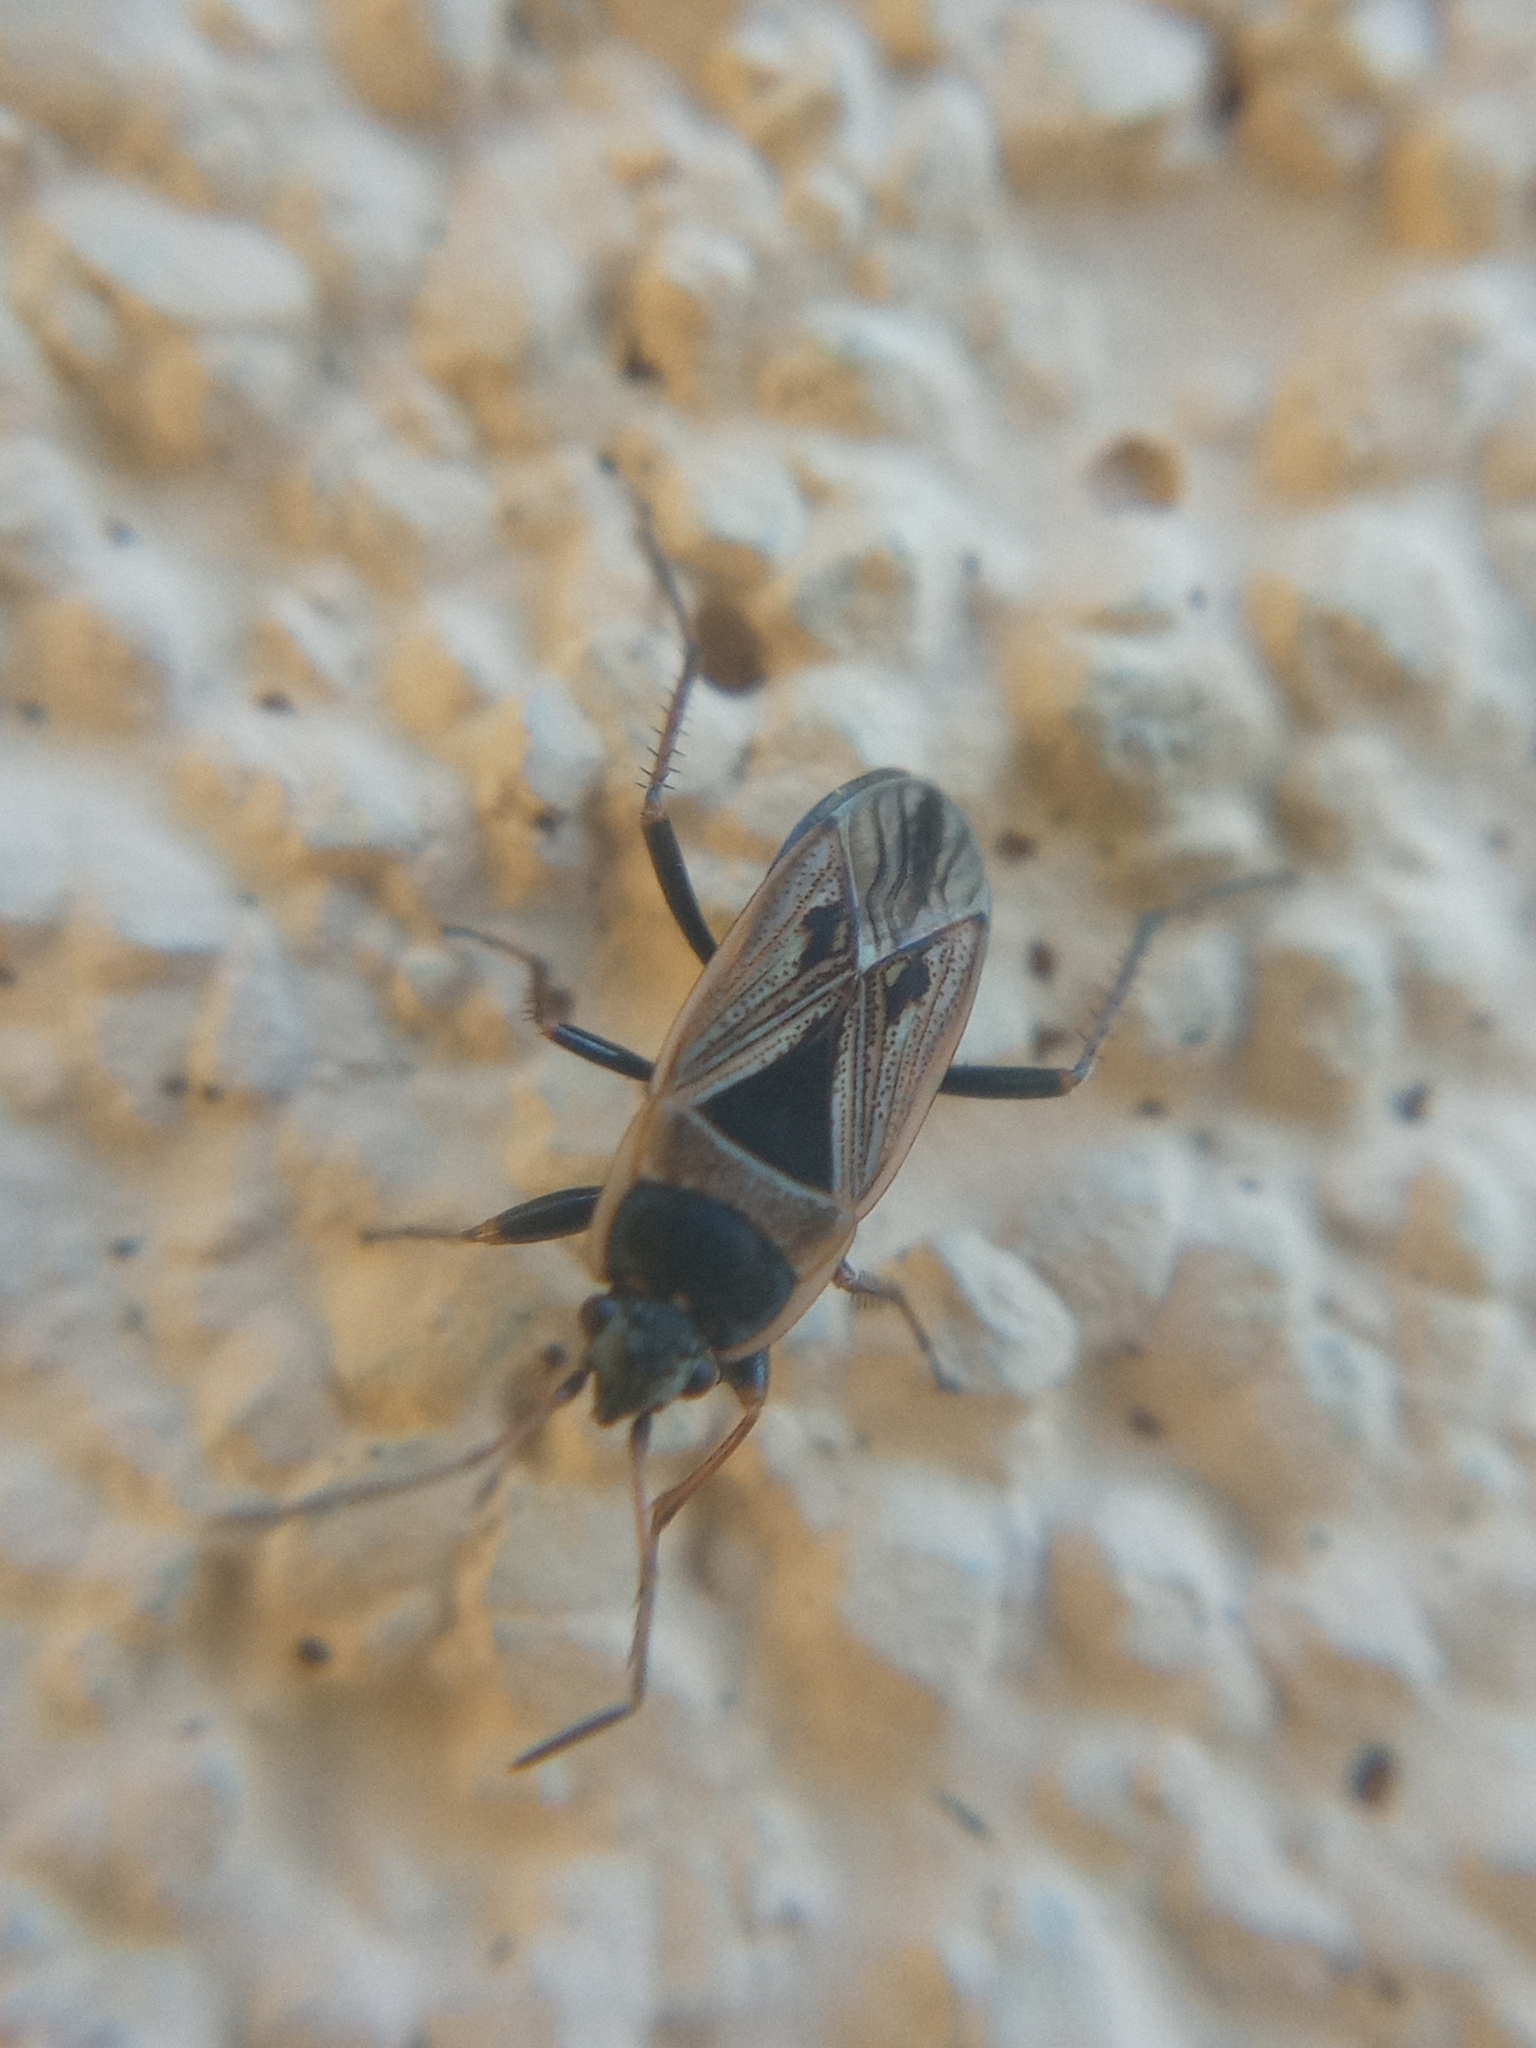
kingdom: Animalia
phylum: Arthropoda
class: Insecta
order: Hemiptera
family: Rhyparochromidae
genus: Xanthochilus
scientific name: Xanthochilus quadratus
